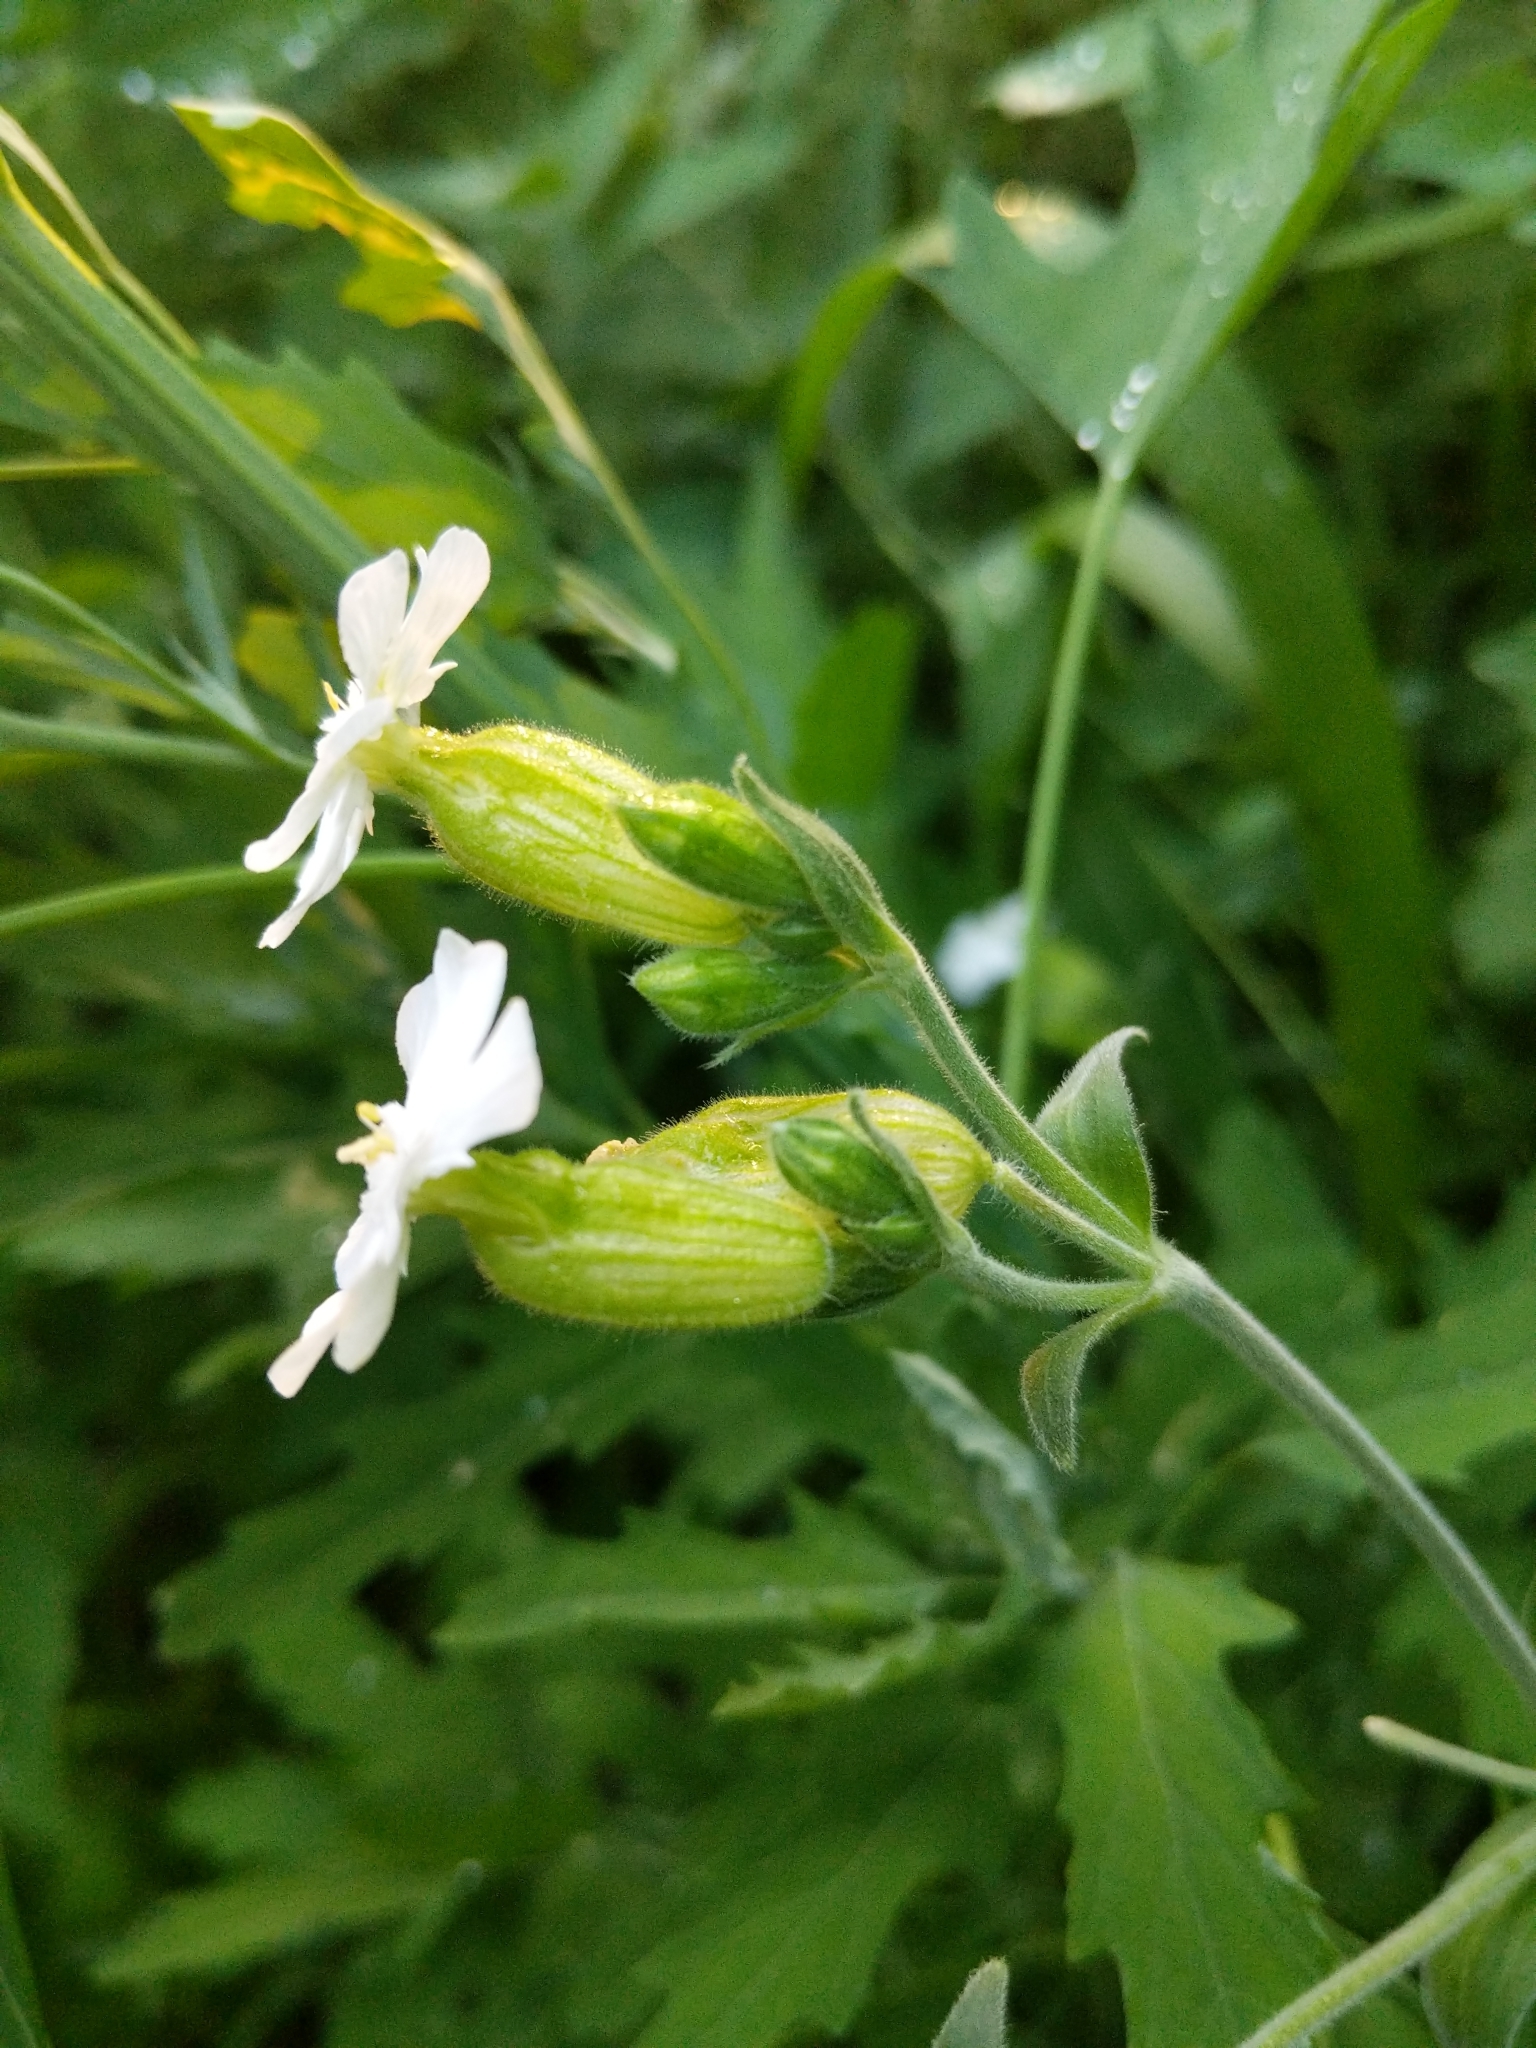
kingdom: Plantae
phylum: Tracheophyta
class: Magnoliopsida
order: Caryophyllales
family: Caryophyllaceae
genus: Silene
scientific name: Silene latifolia
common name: White campion
